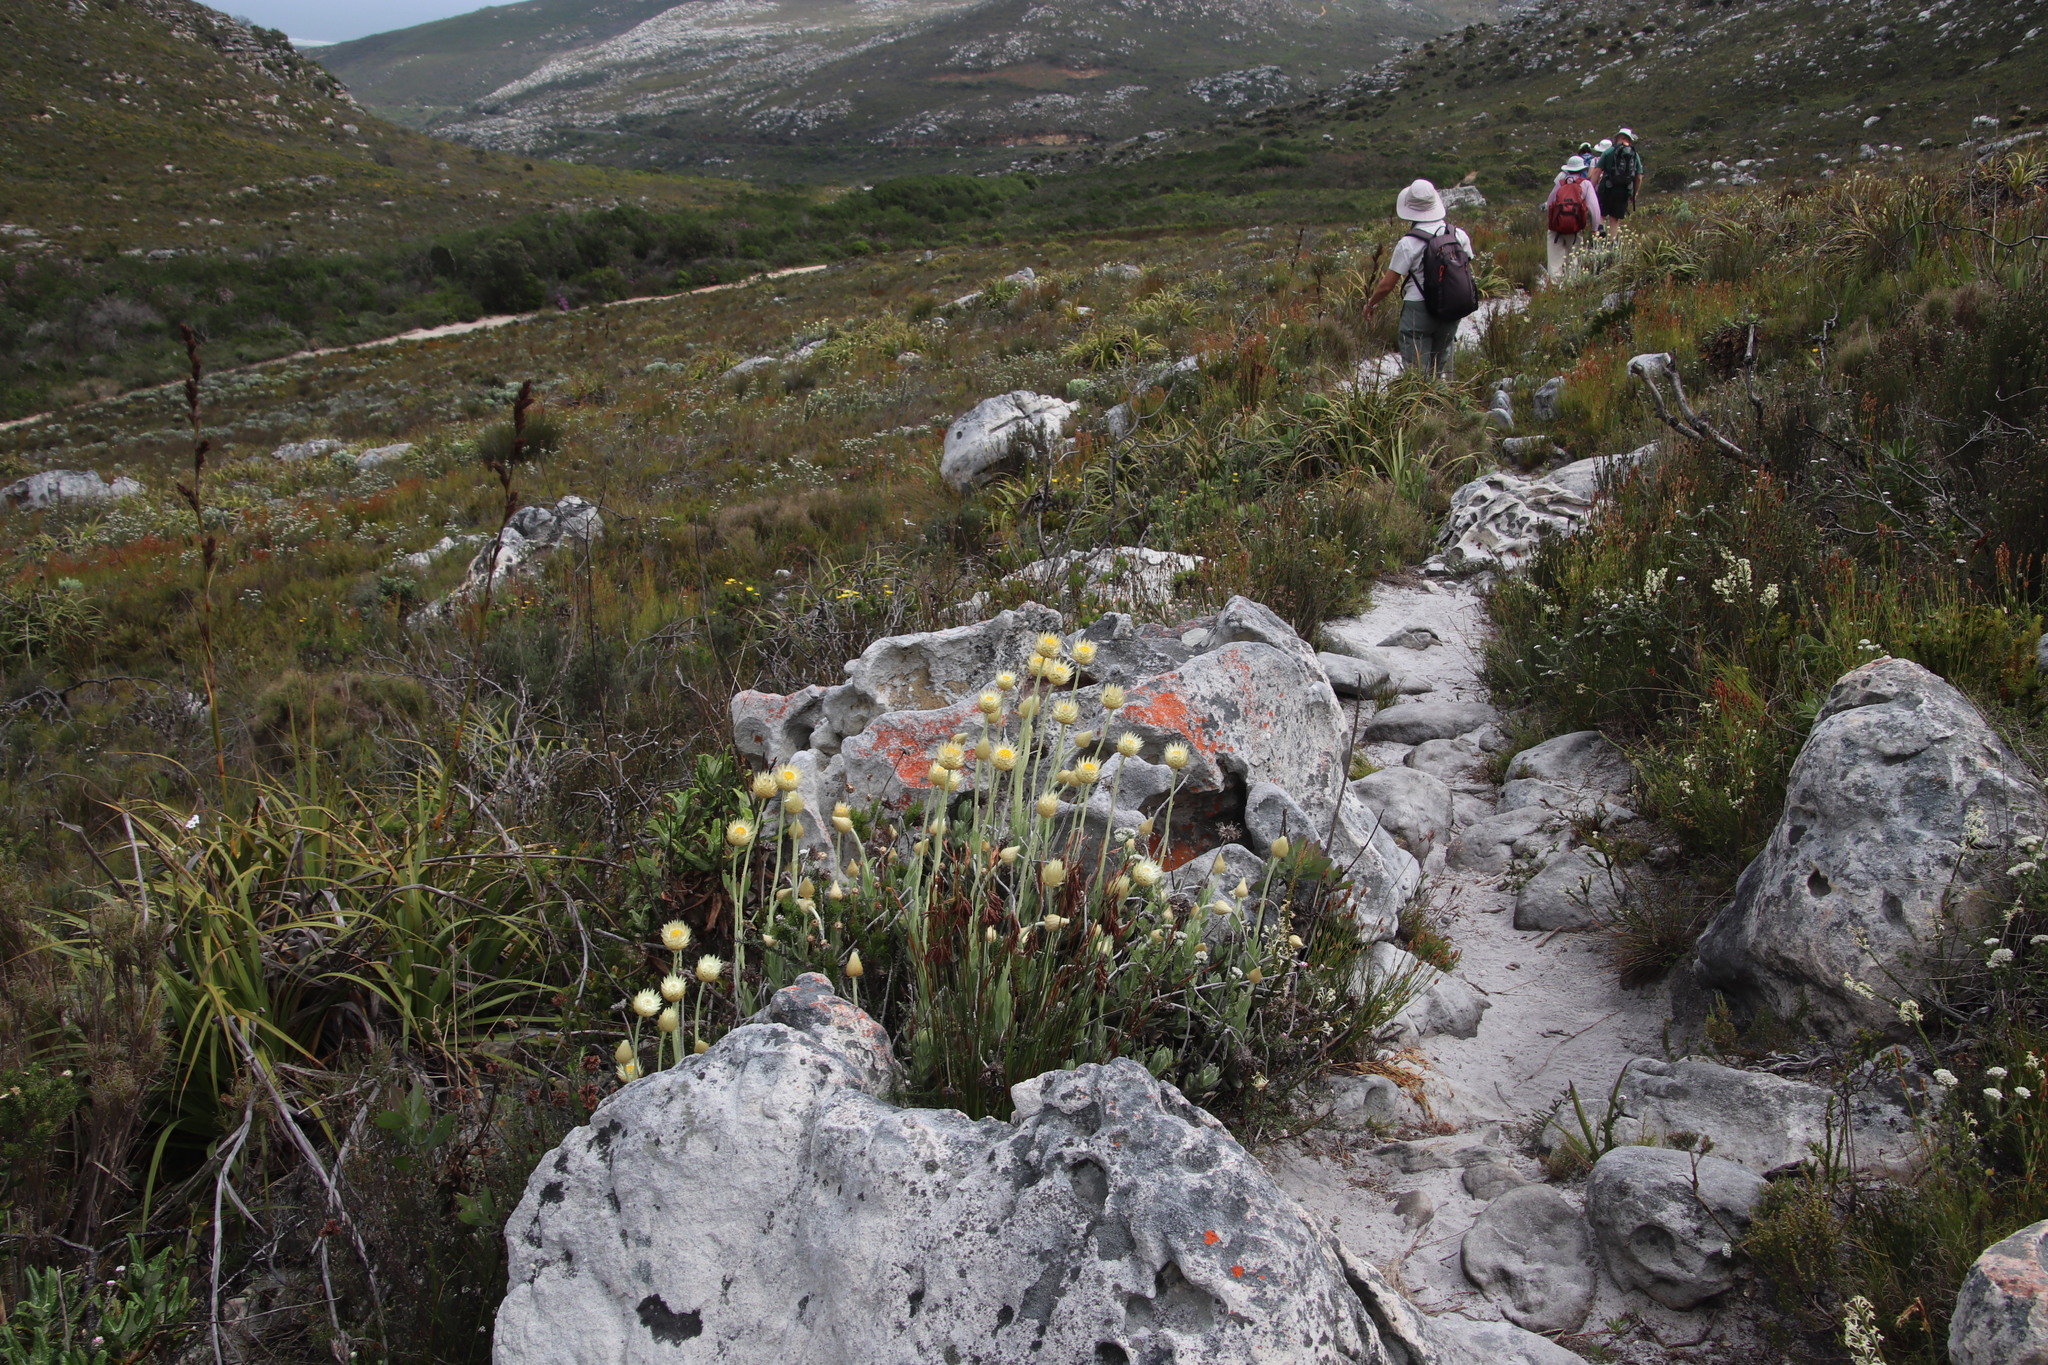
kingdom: Plantae
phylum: Tracheophyta
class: Magnoliopsida
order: Asterales
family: Asteraceae
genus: Syncarpha
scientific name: Syncarpha speciosissima
